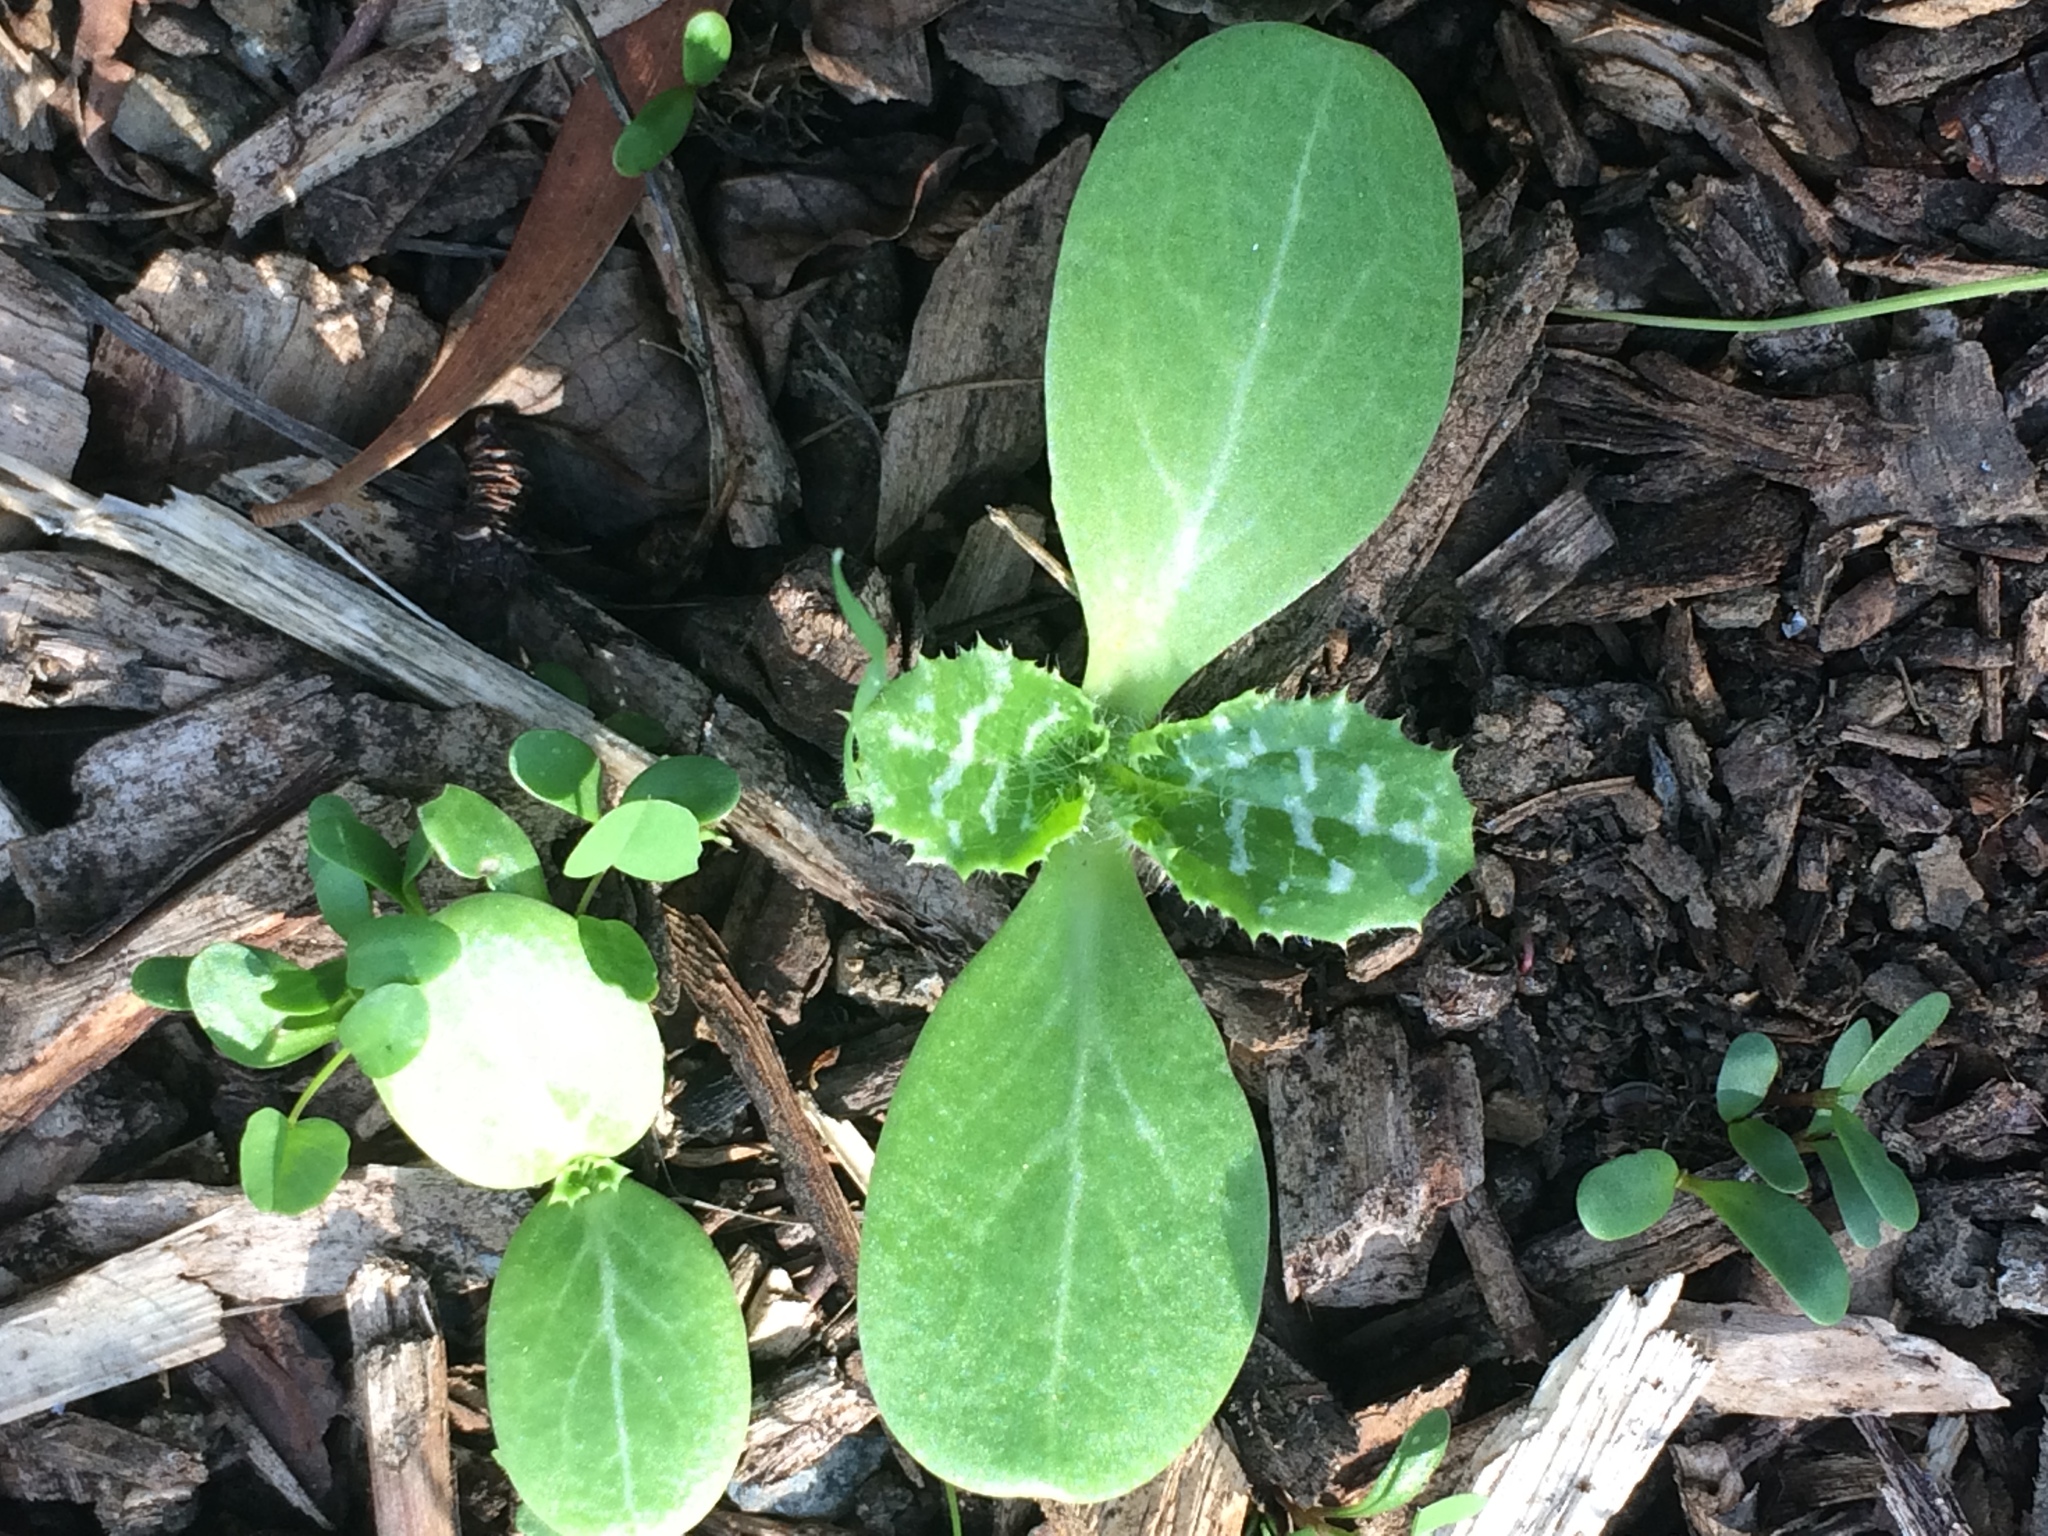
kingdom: Plantae
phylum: Tracheophyta
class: Magnoliopsida
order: Asterales
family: Asteraceae
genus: Silybum
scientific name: Silybum marianum
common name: Milk thistle
